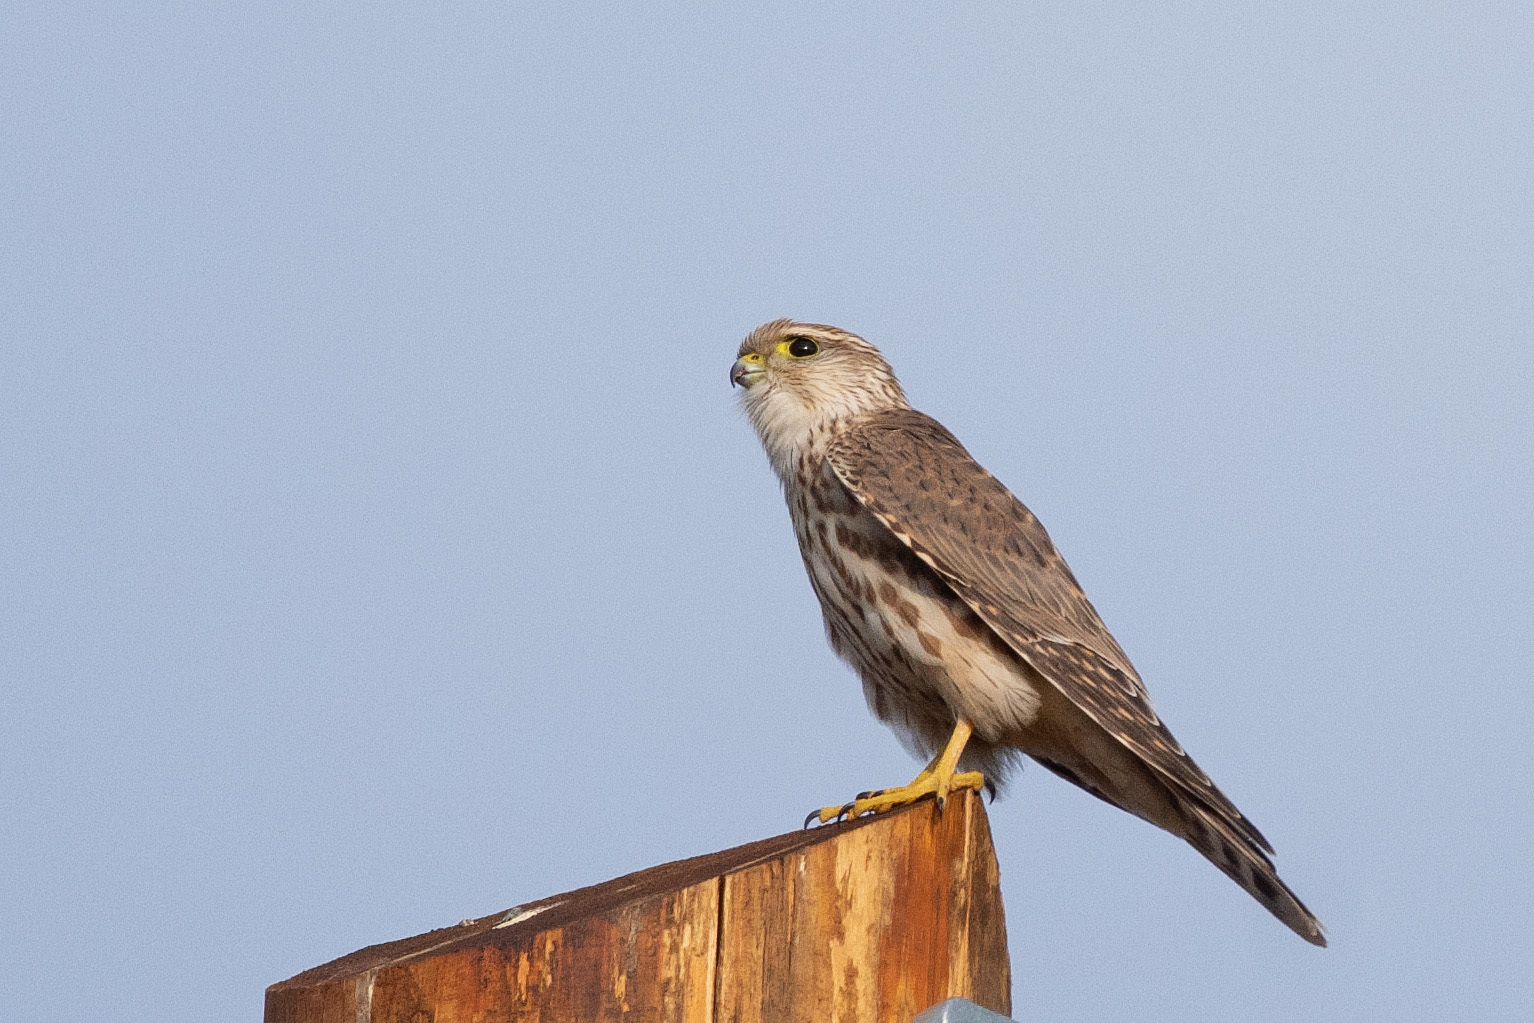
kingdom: Animalia
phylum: Chordata
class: Aves
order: Falconiformes
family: Falconidae
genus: Falco
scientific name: Falco columbarius
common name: Merlin
